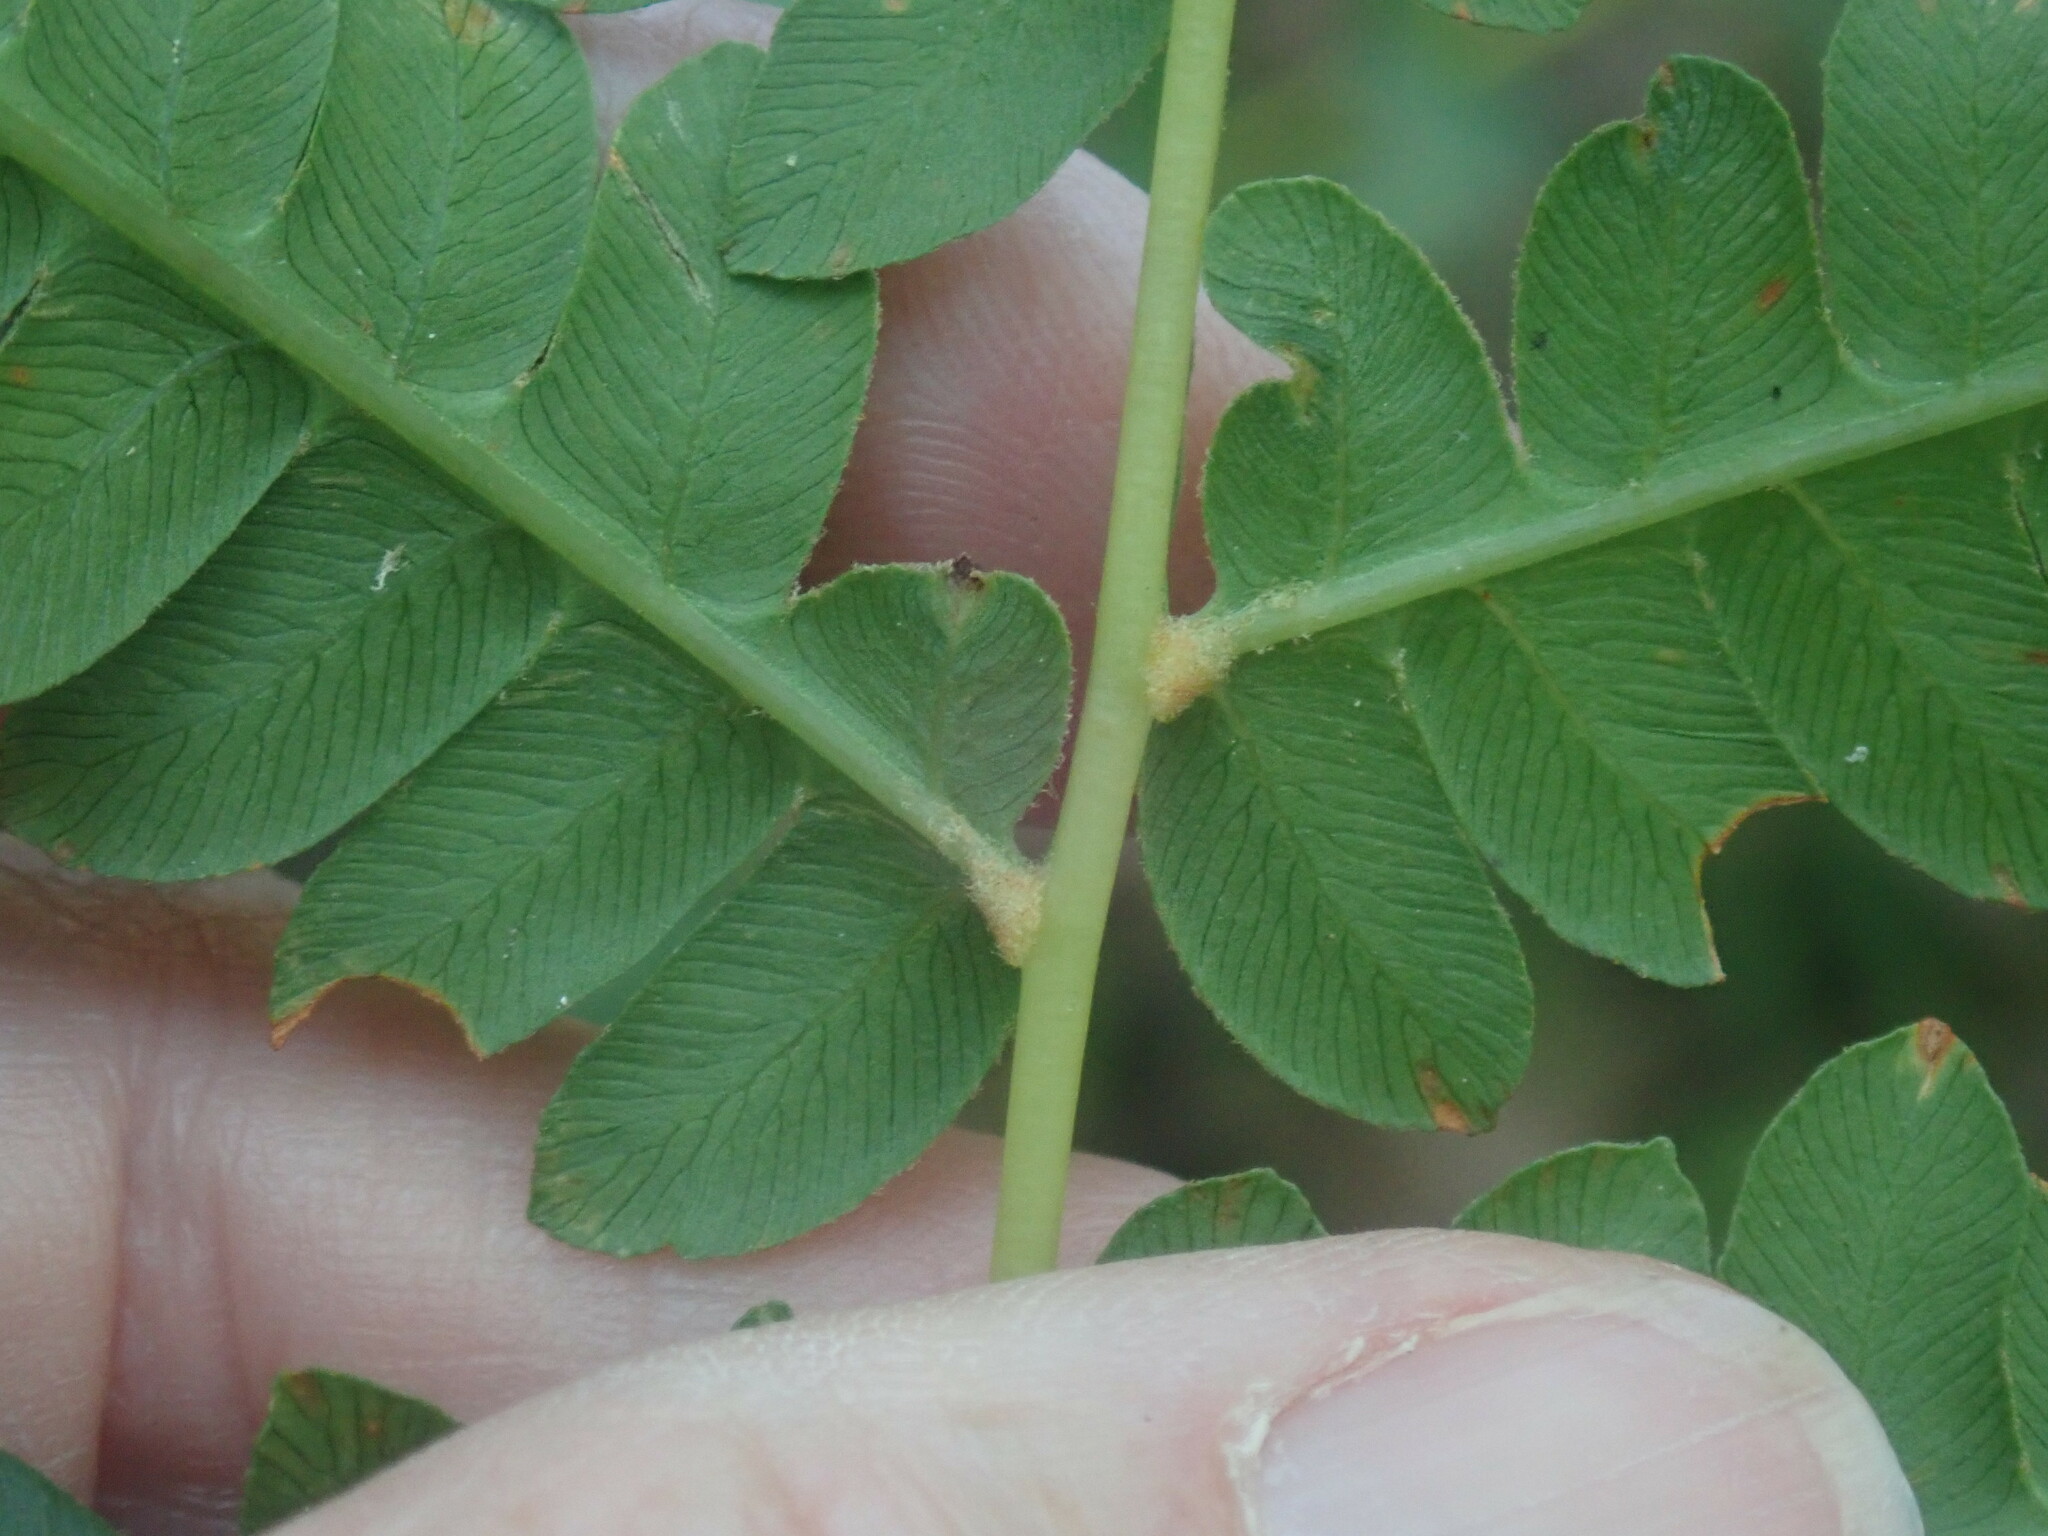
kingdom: Plantae
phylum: Tracheophyta
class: Polypodiopsida
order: Osmundales
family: Osmundaceae
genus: Osmundastrum
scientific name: Osmundastrum cinnamomeum
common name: Cinnamon fern
